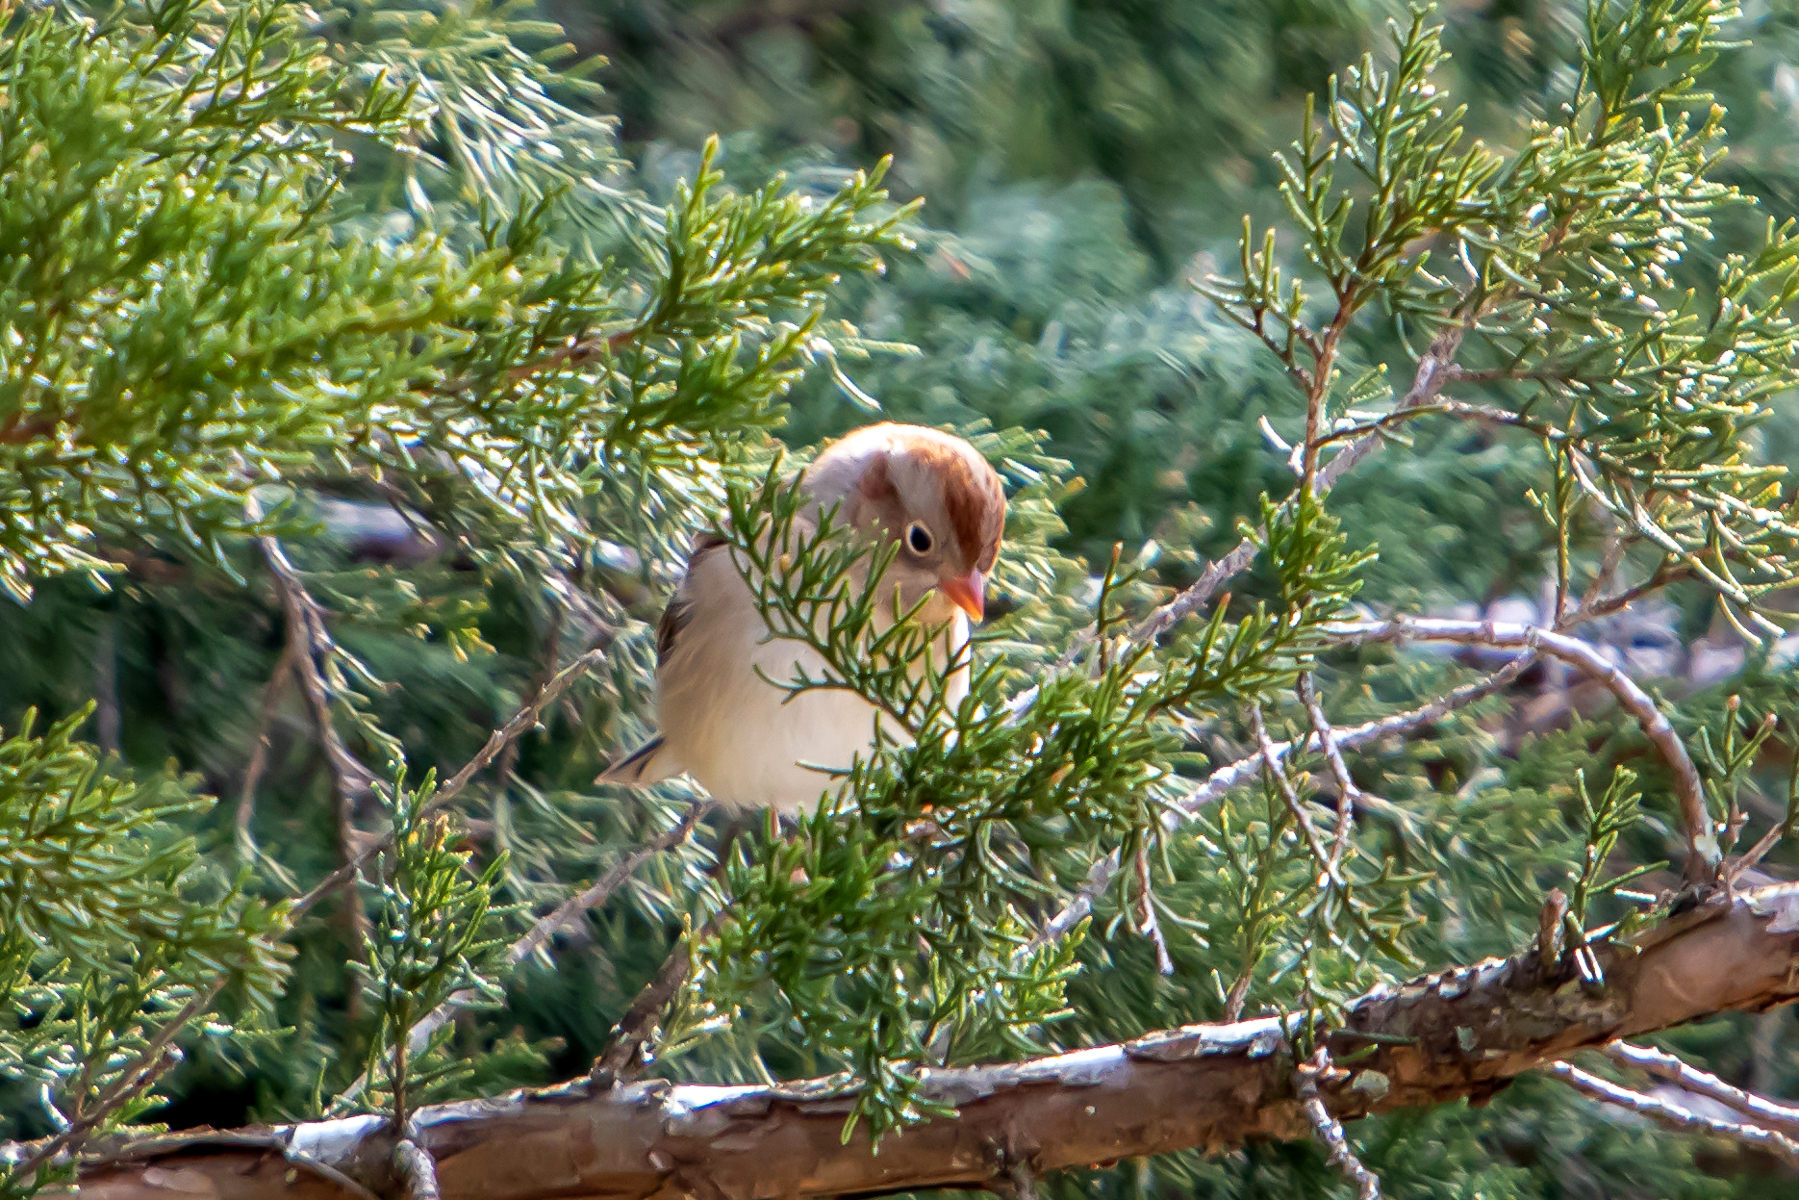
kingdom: Animalia
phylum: Chordata
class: Aves
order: Passeriformes
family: Passerellidae
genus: Spizella
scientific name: Spizella pusilla
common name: Field sparrow
